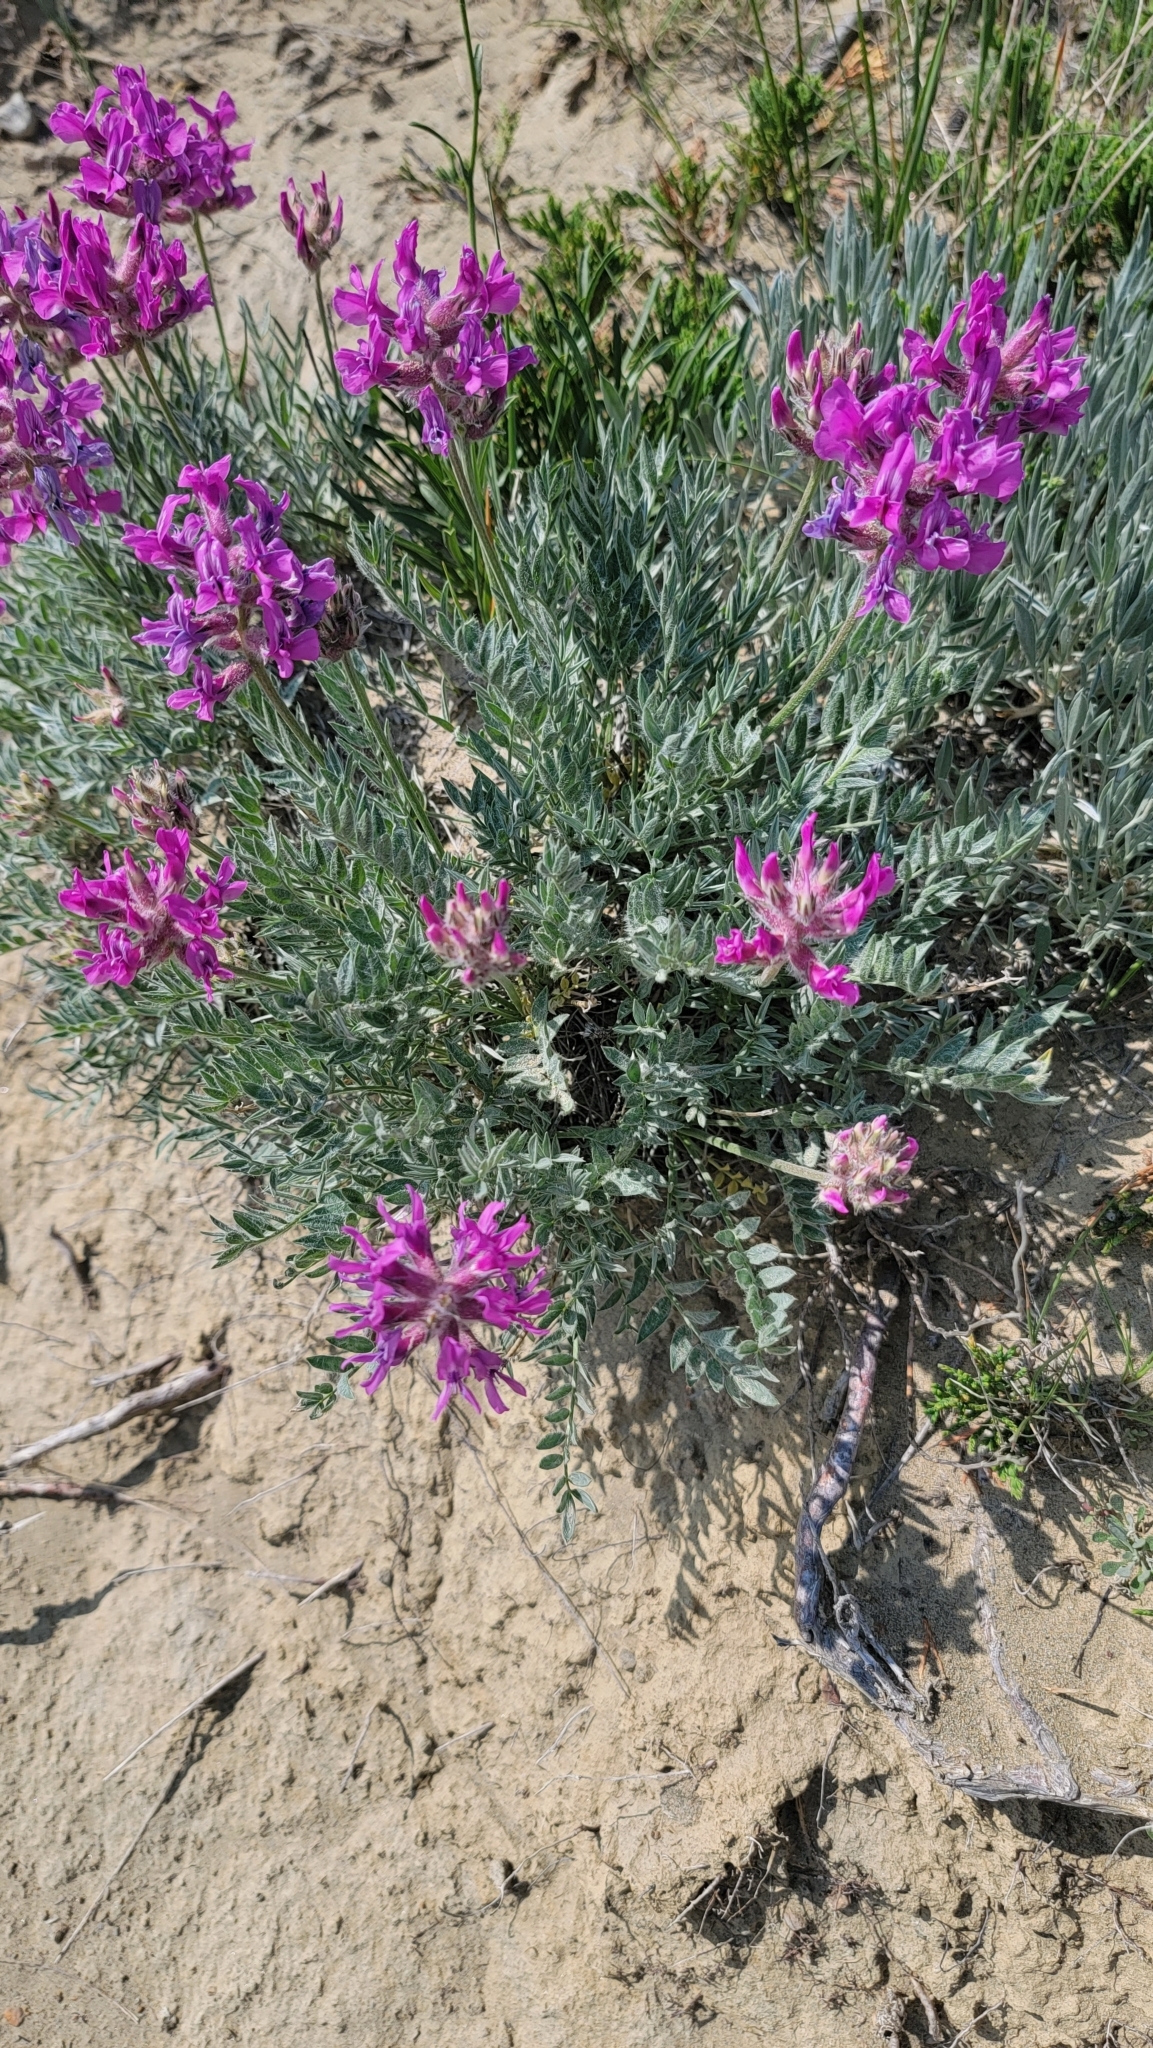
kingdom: Plantae
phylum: Tracheophyta
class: Magnoliopsida
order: Fabales
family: Fabaceae
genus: Oxytropis
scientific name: Oxytropis besseyi
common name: Bessey's locoweed
